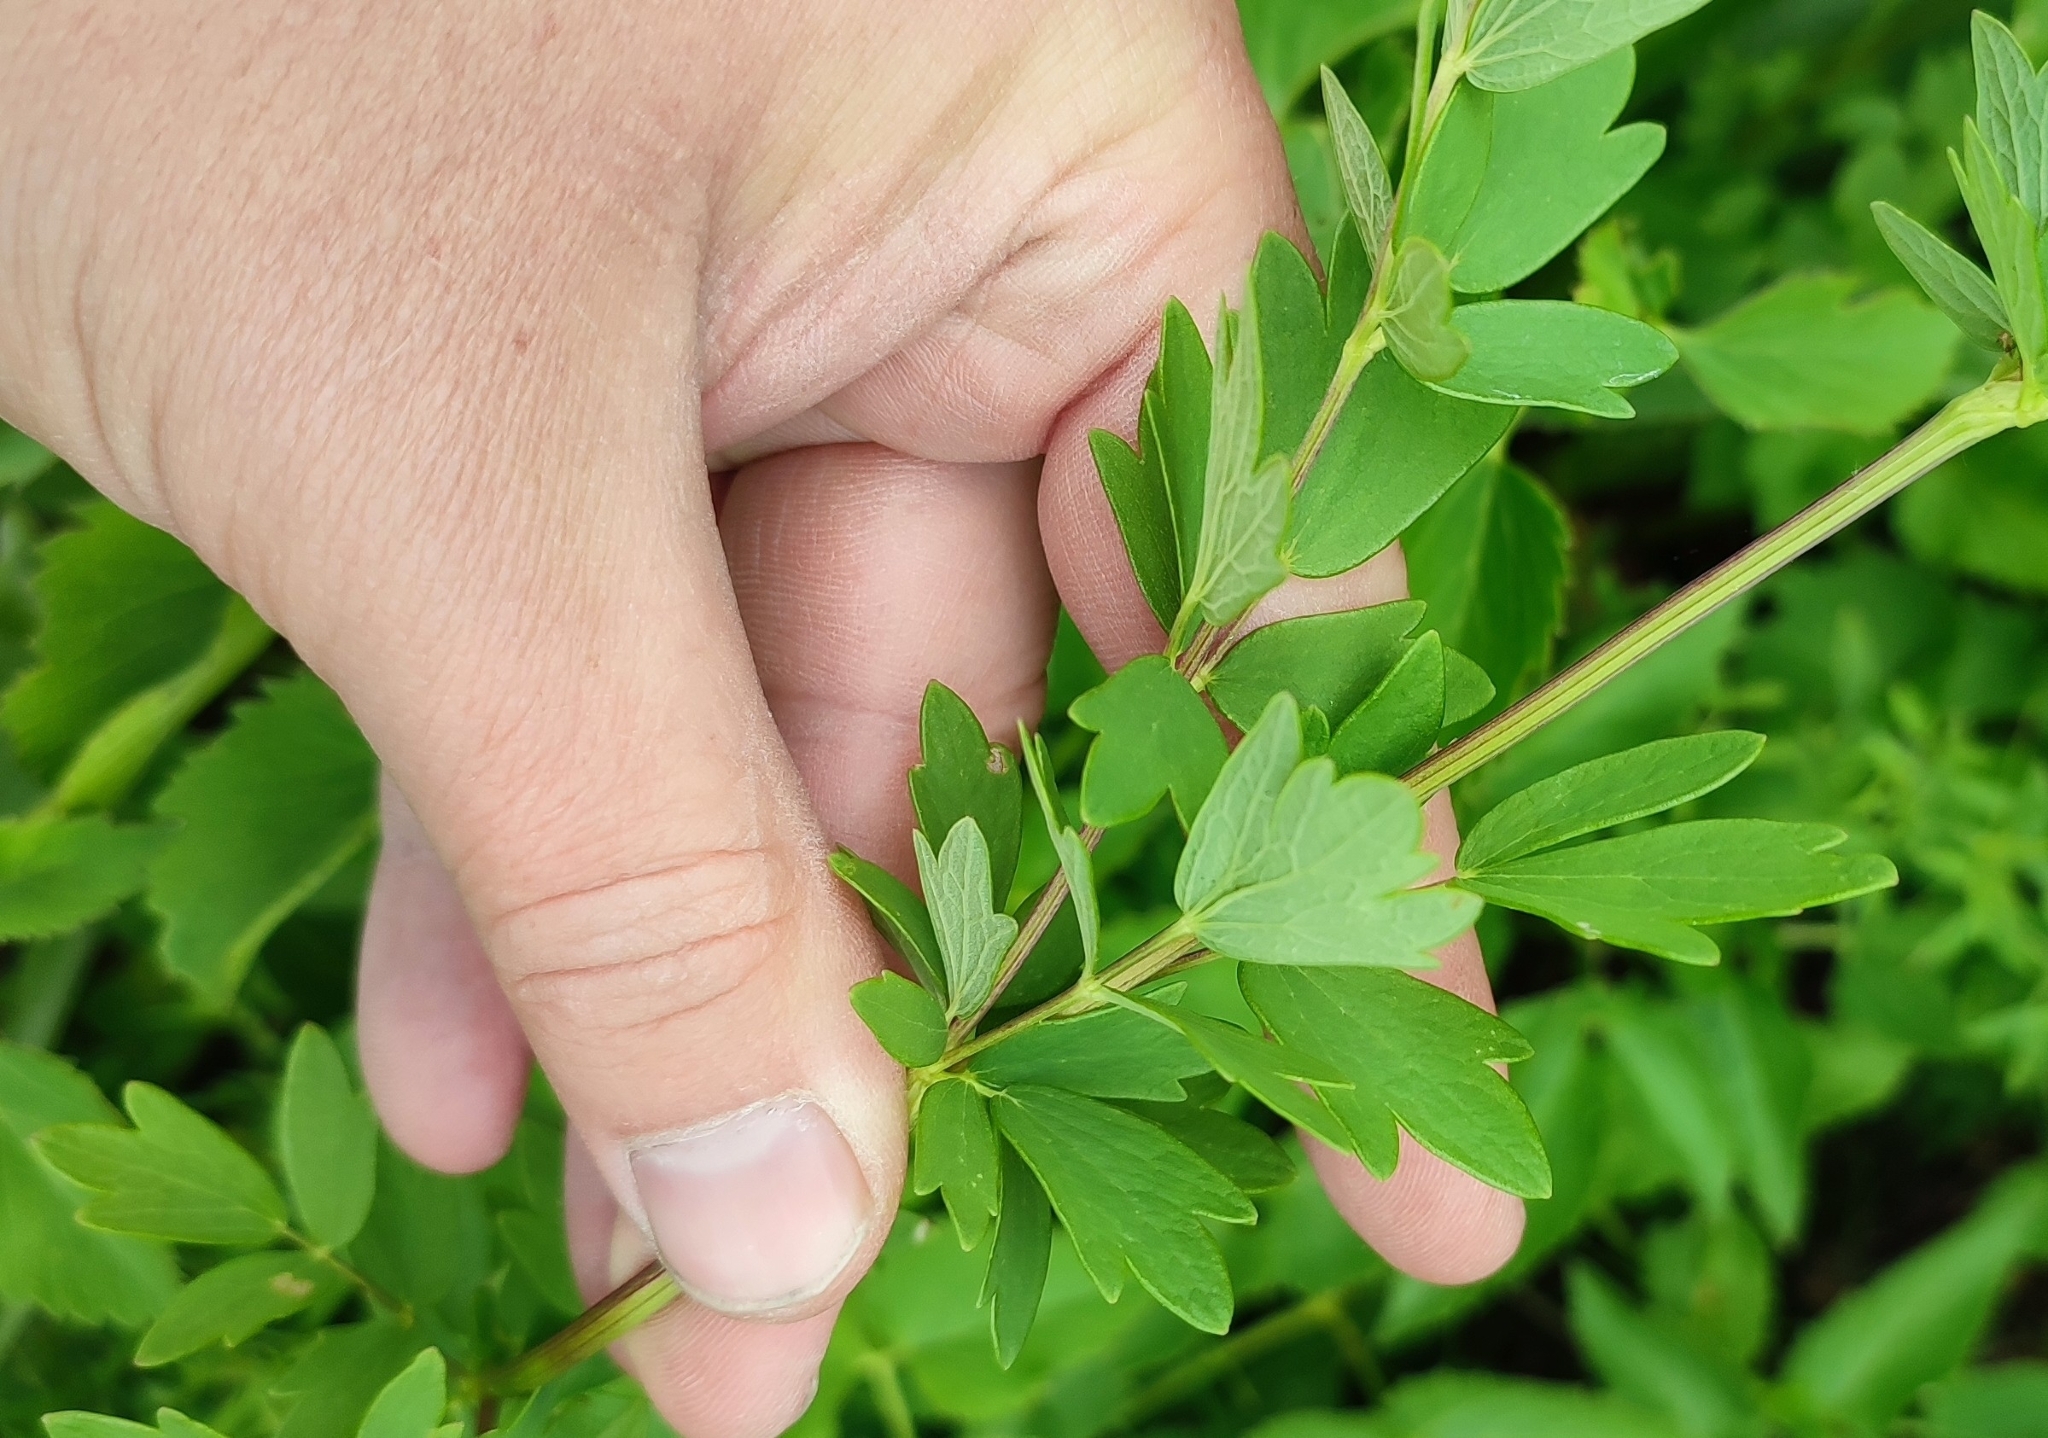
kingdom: Plantae
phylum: Tracheophyta
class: Magnoliopsida
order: Ranunculales
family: Ranunculaceae
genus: Thalictrum
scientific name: Thalictrum simplex
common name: Small meadow-rue
